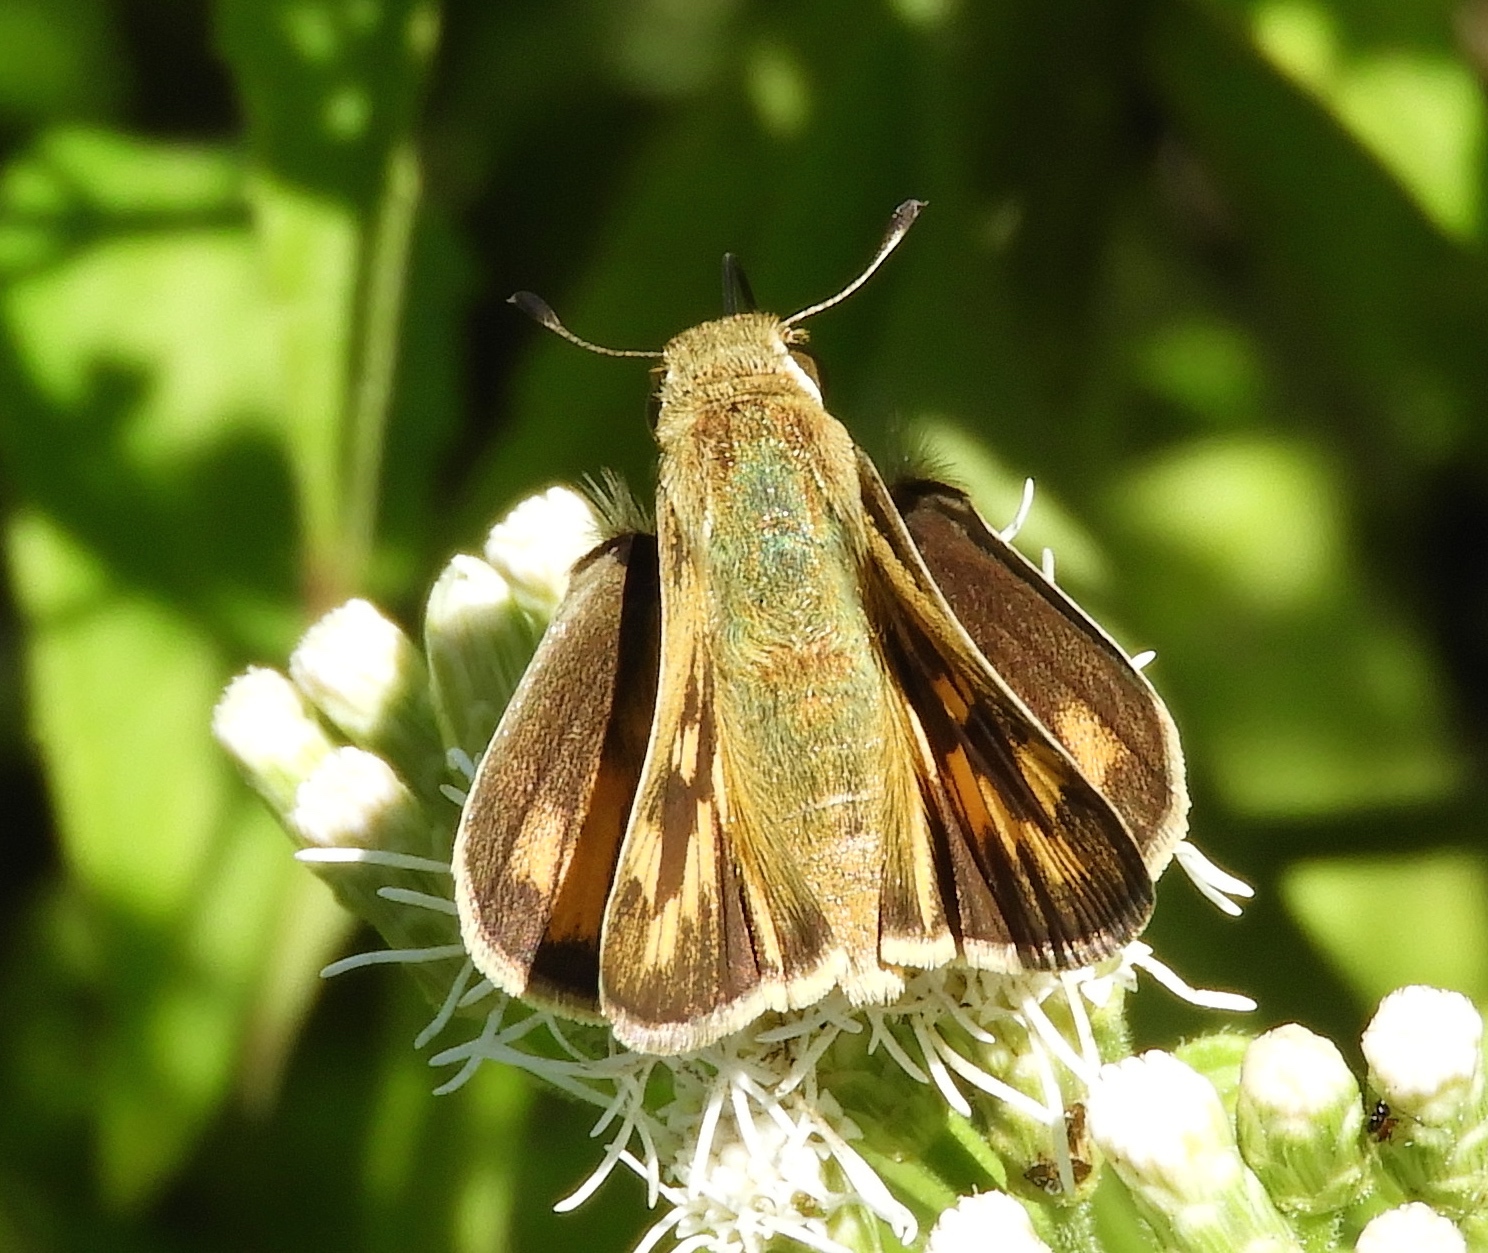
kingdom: Animalia
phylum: Arthropoda
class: Insecta
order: Lepidoptera
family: Hesperiidae
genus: Hylephila
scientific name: Hylephila phyleus
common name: Fiery skipper
